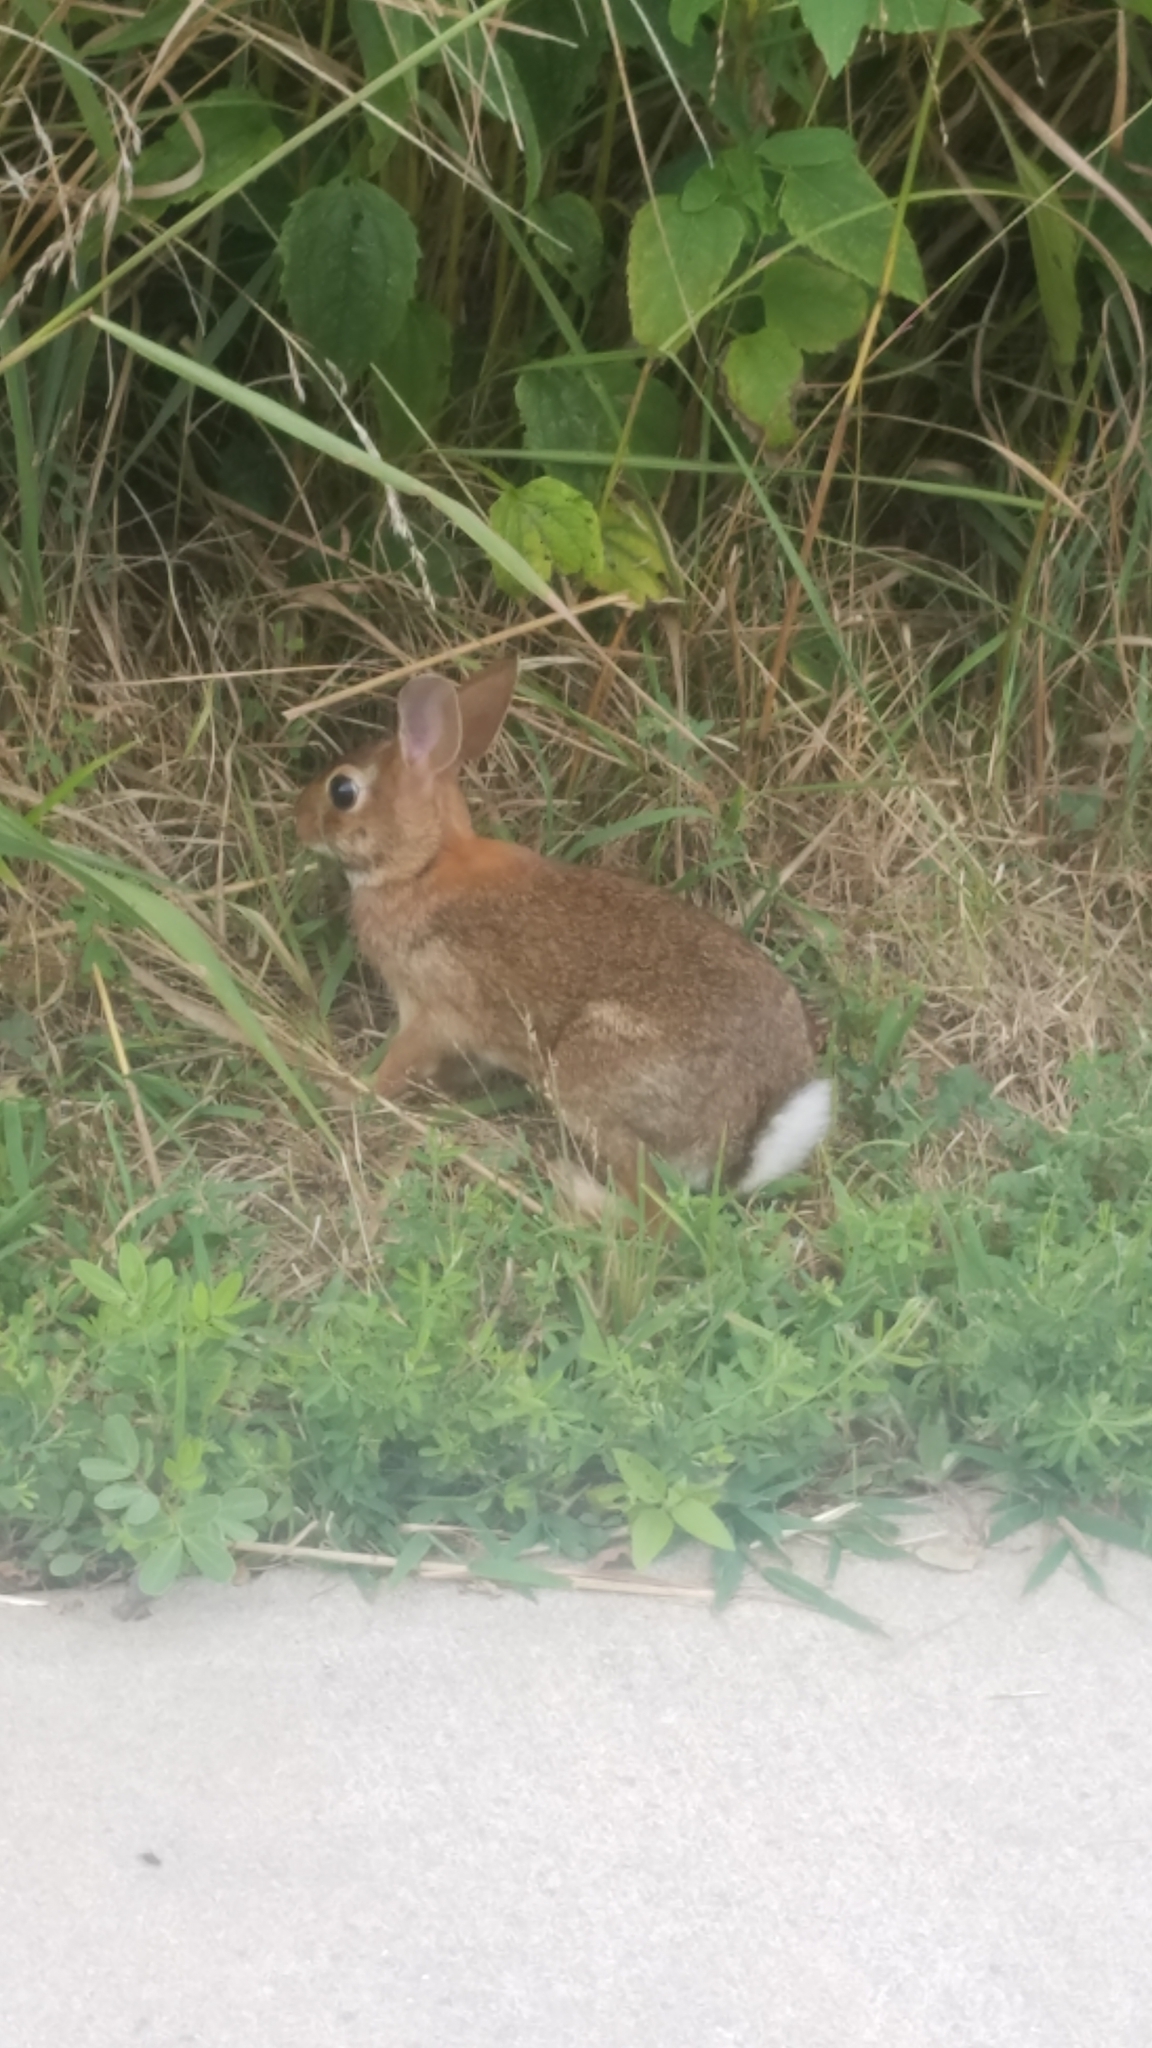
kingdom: Animalia
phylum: Chordata
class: Mammalia
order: Lagomorpha
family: Leporidae
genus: Sylvilagus
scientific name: Sylvilagus floridanus
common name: Eastern cottontail
